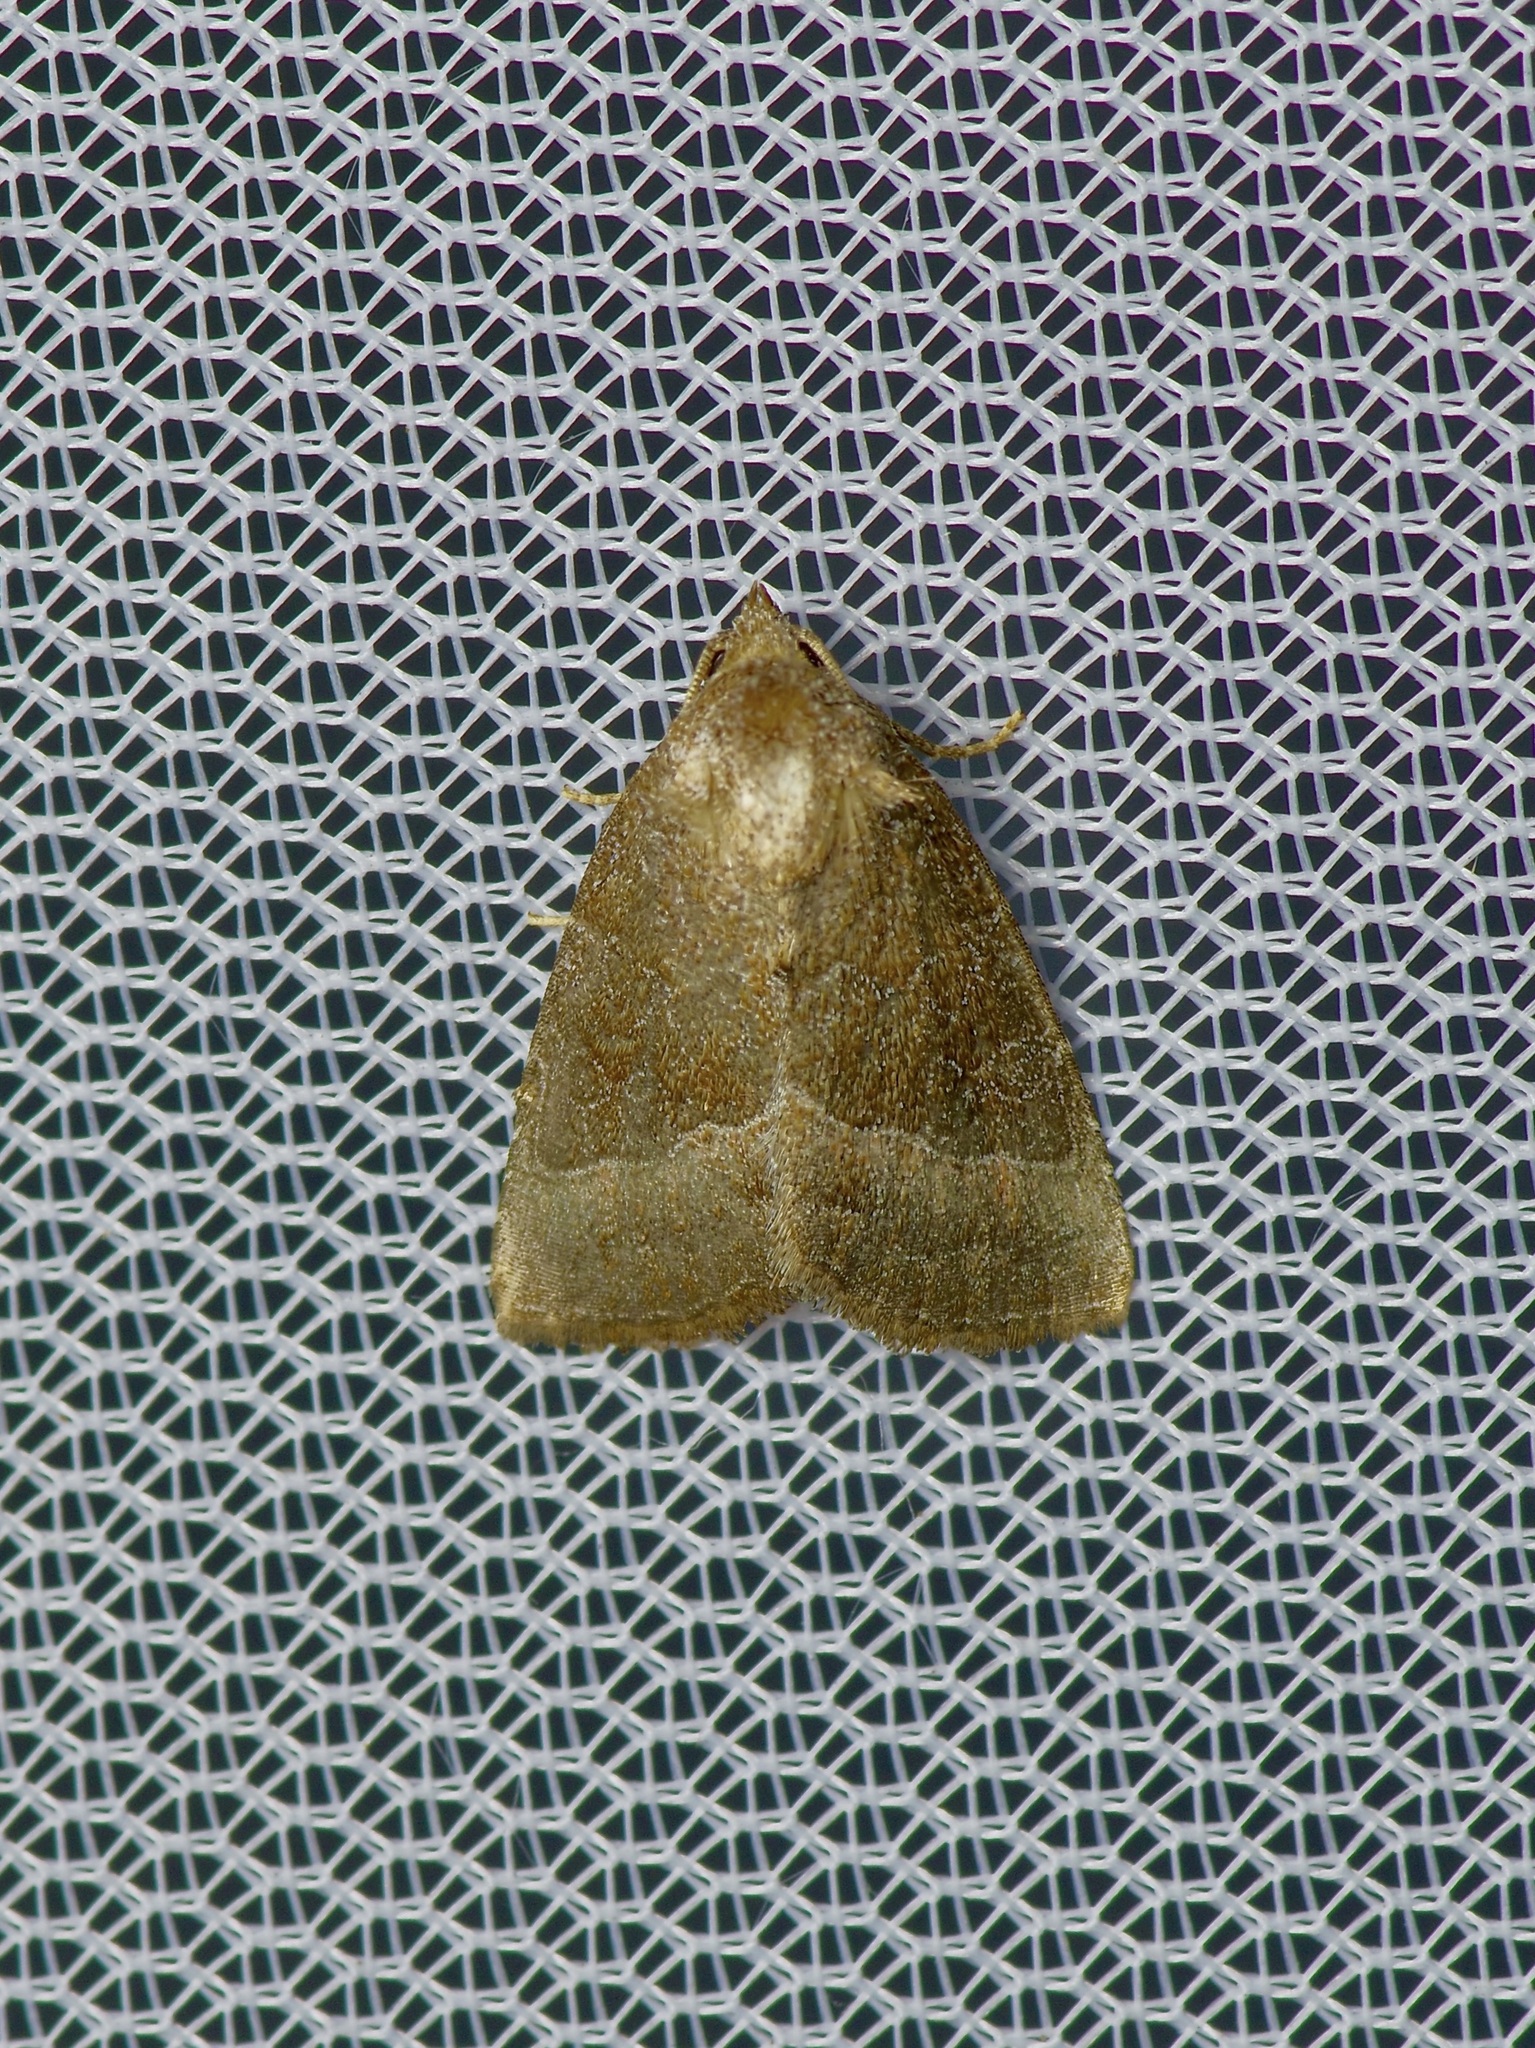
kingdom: Animalia
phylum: Arthropoda
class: Insecta
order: Lepidoptera
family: Noctuidae
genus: Ogdoconta
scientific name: Ogdoconta cinereola
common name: Common pinkband
